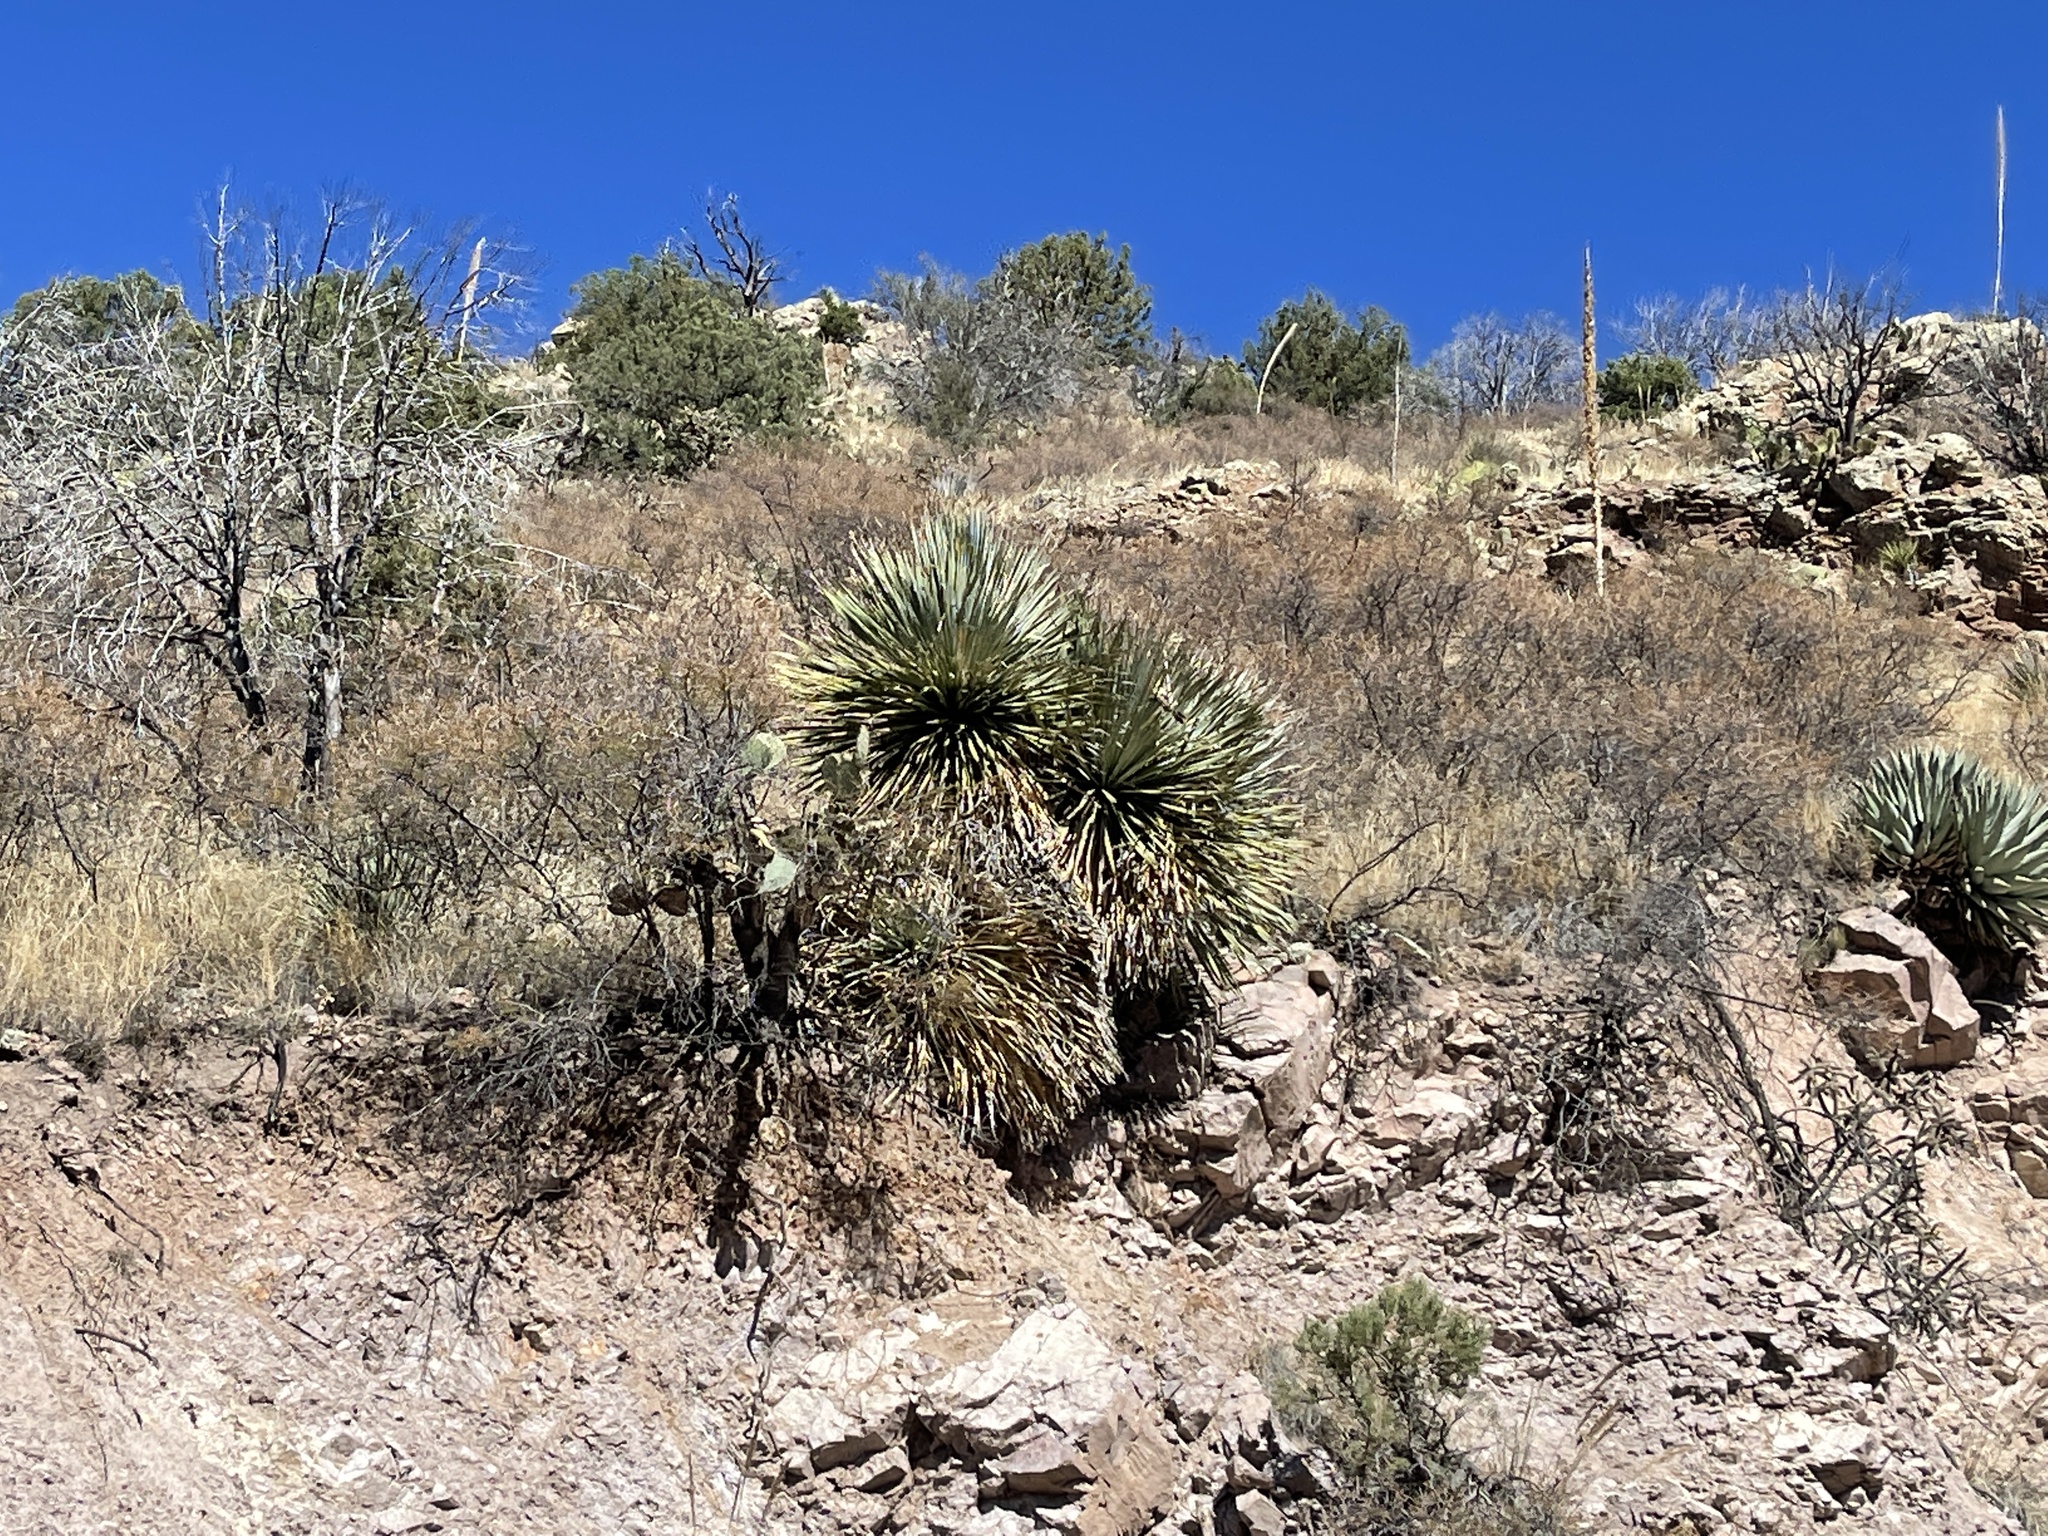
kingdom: Plantae
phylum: Tracheophyta
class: Liliopsida
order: Asparagales
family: Asparagaceae
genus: Yucca
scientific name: Yucca elata
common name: Palmella
